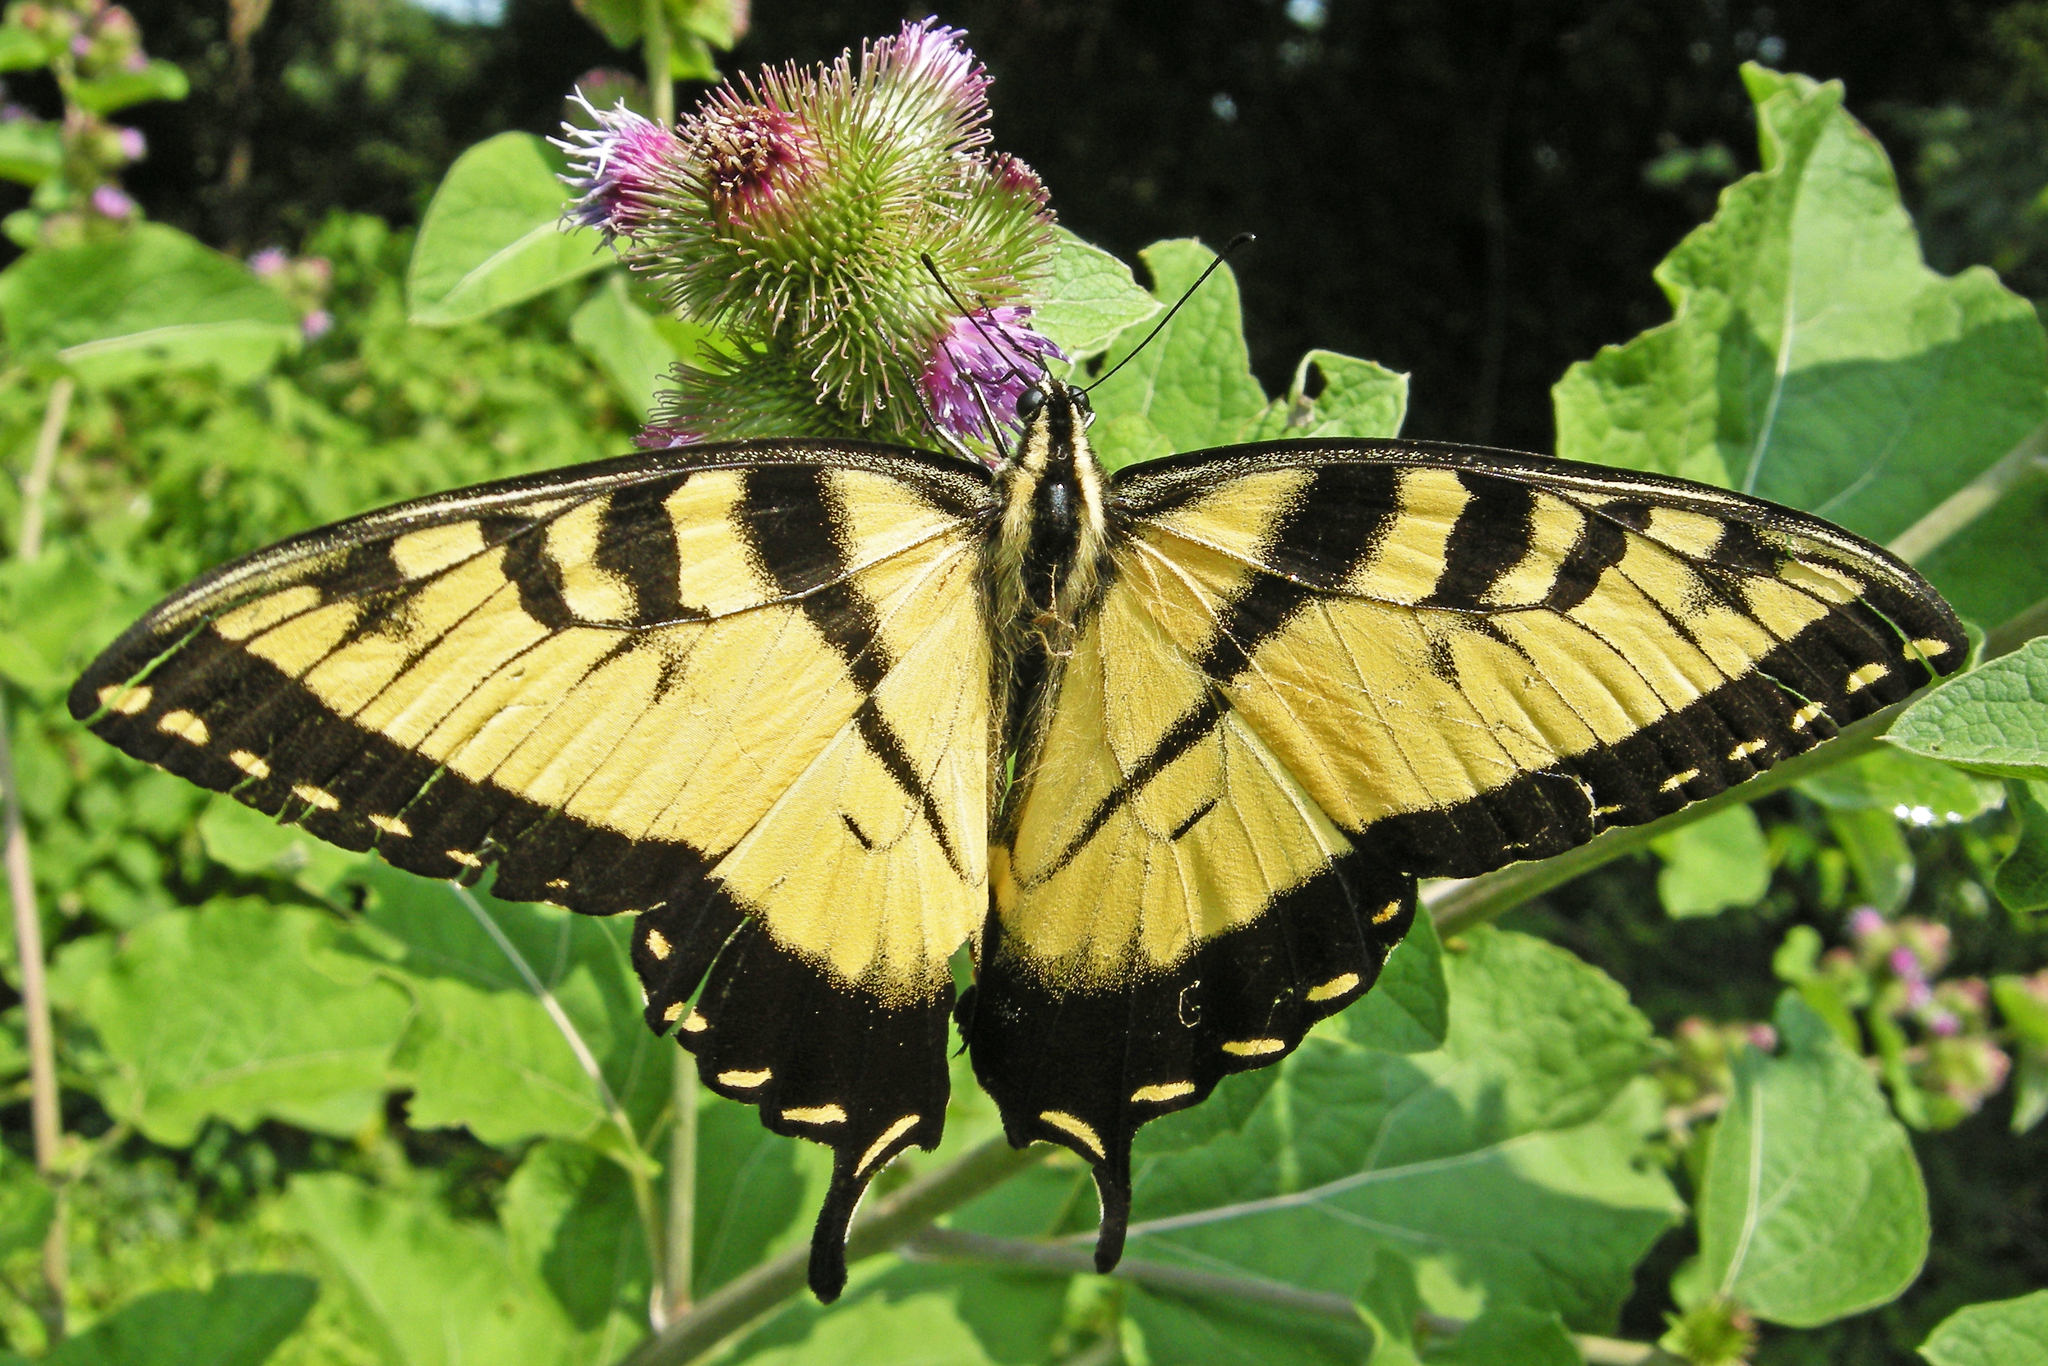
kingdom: Animalia
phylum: Arthropoda
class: Insecta
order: Lepidoptera
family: Papilionidae
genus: Papilio
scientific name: Papilio glaucus
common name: Tiger swallowtail
